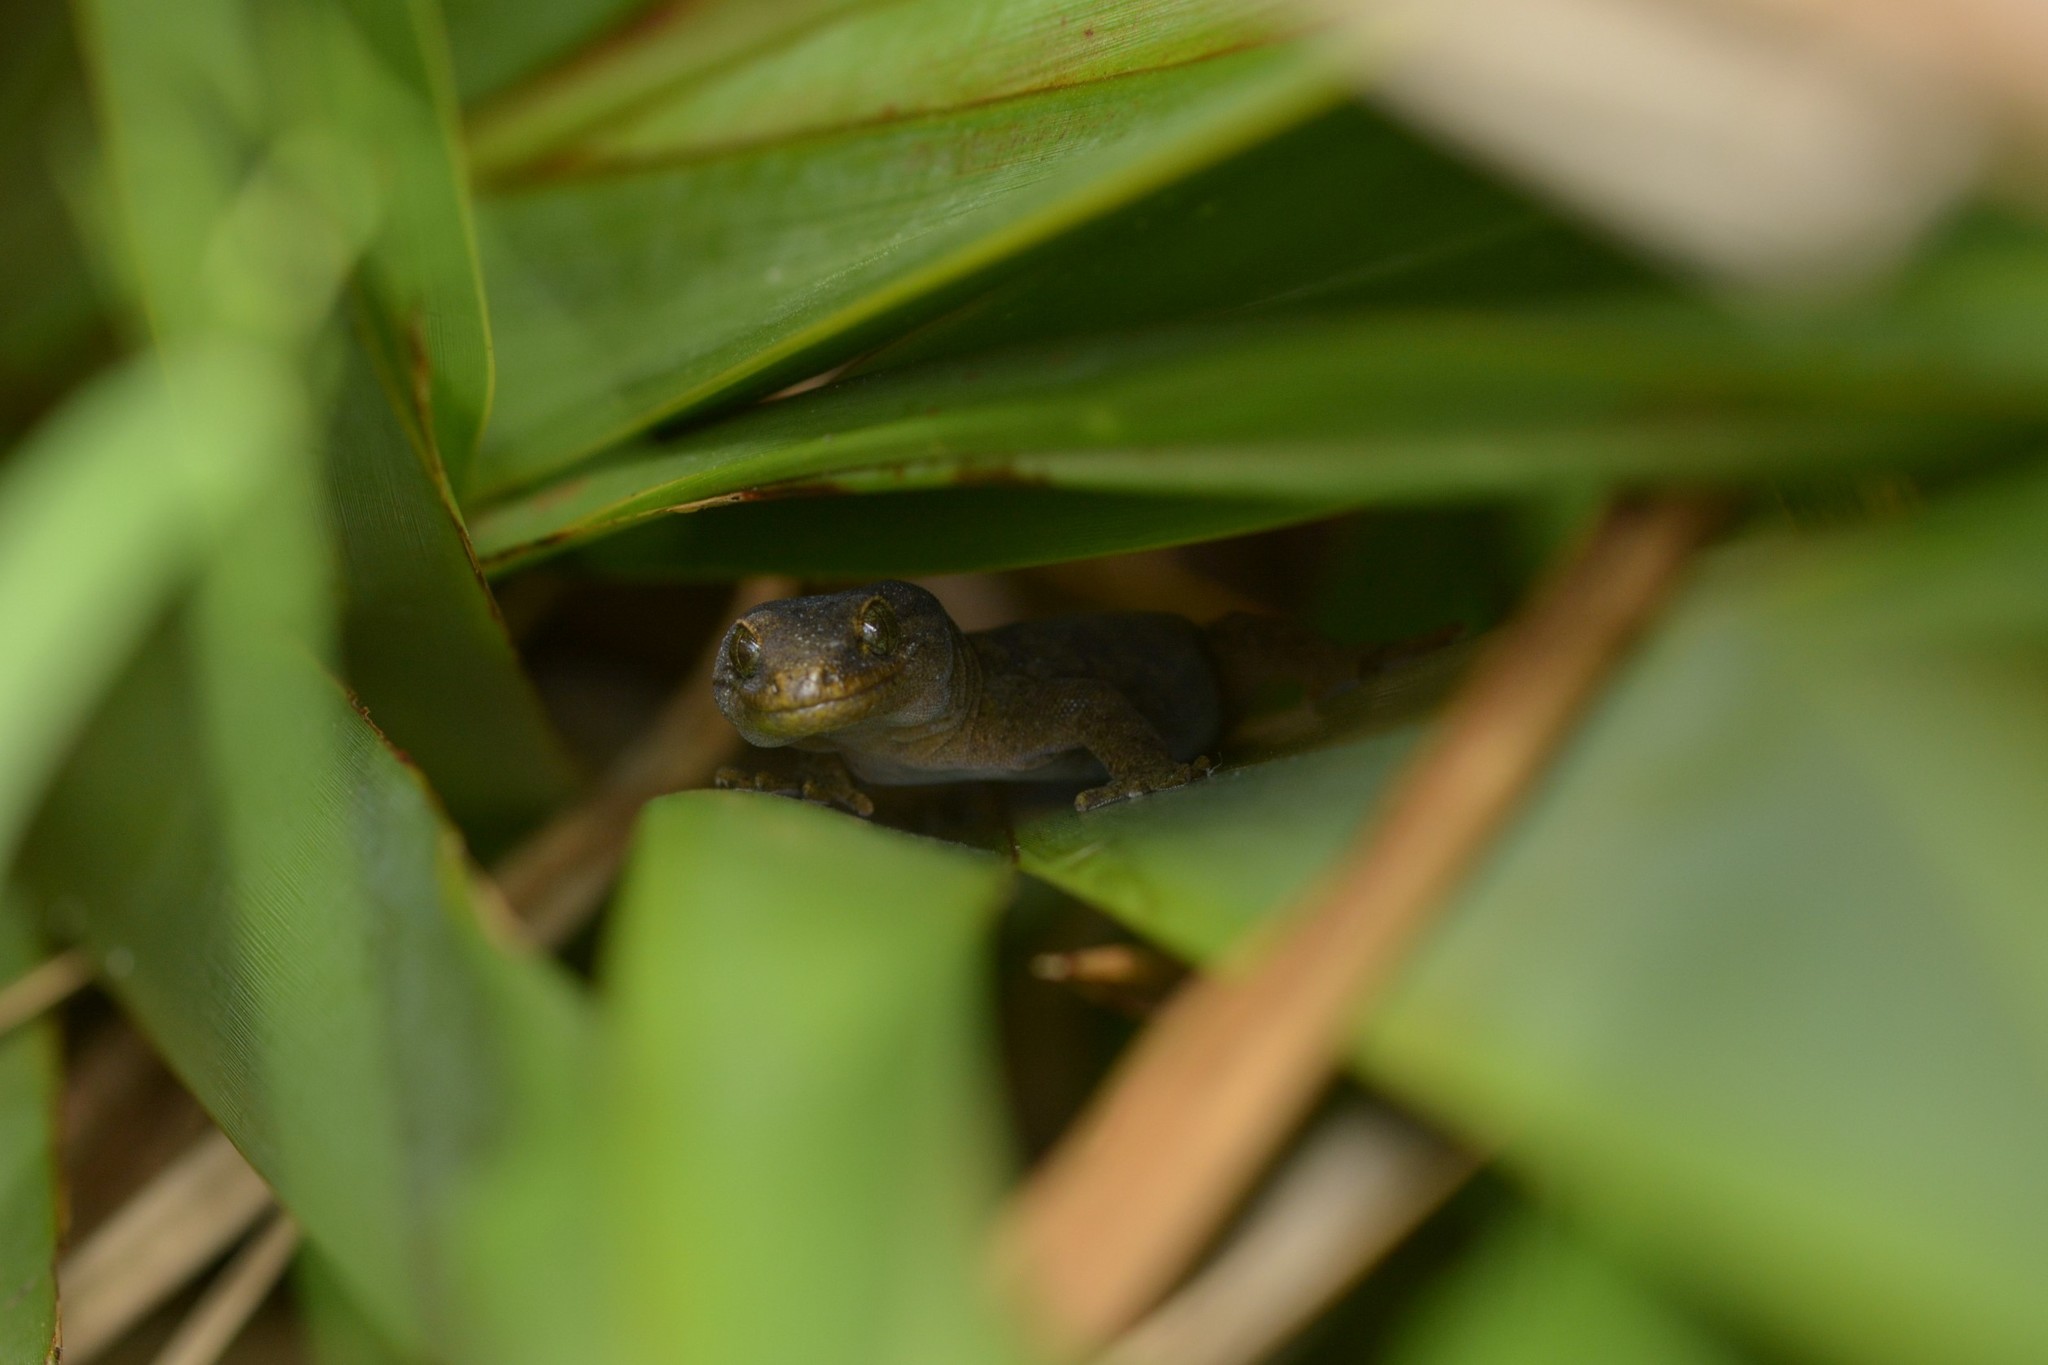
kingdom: Animalia
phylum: Chordata
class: Squamata
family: Diplodactylidae
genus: Woodworthia
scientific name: Woodworthia maculata
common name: Raukawa gecko
